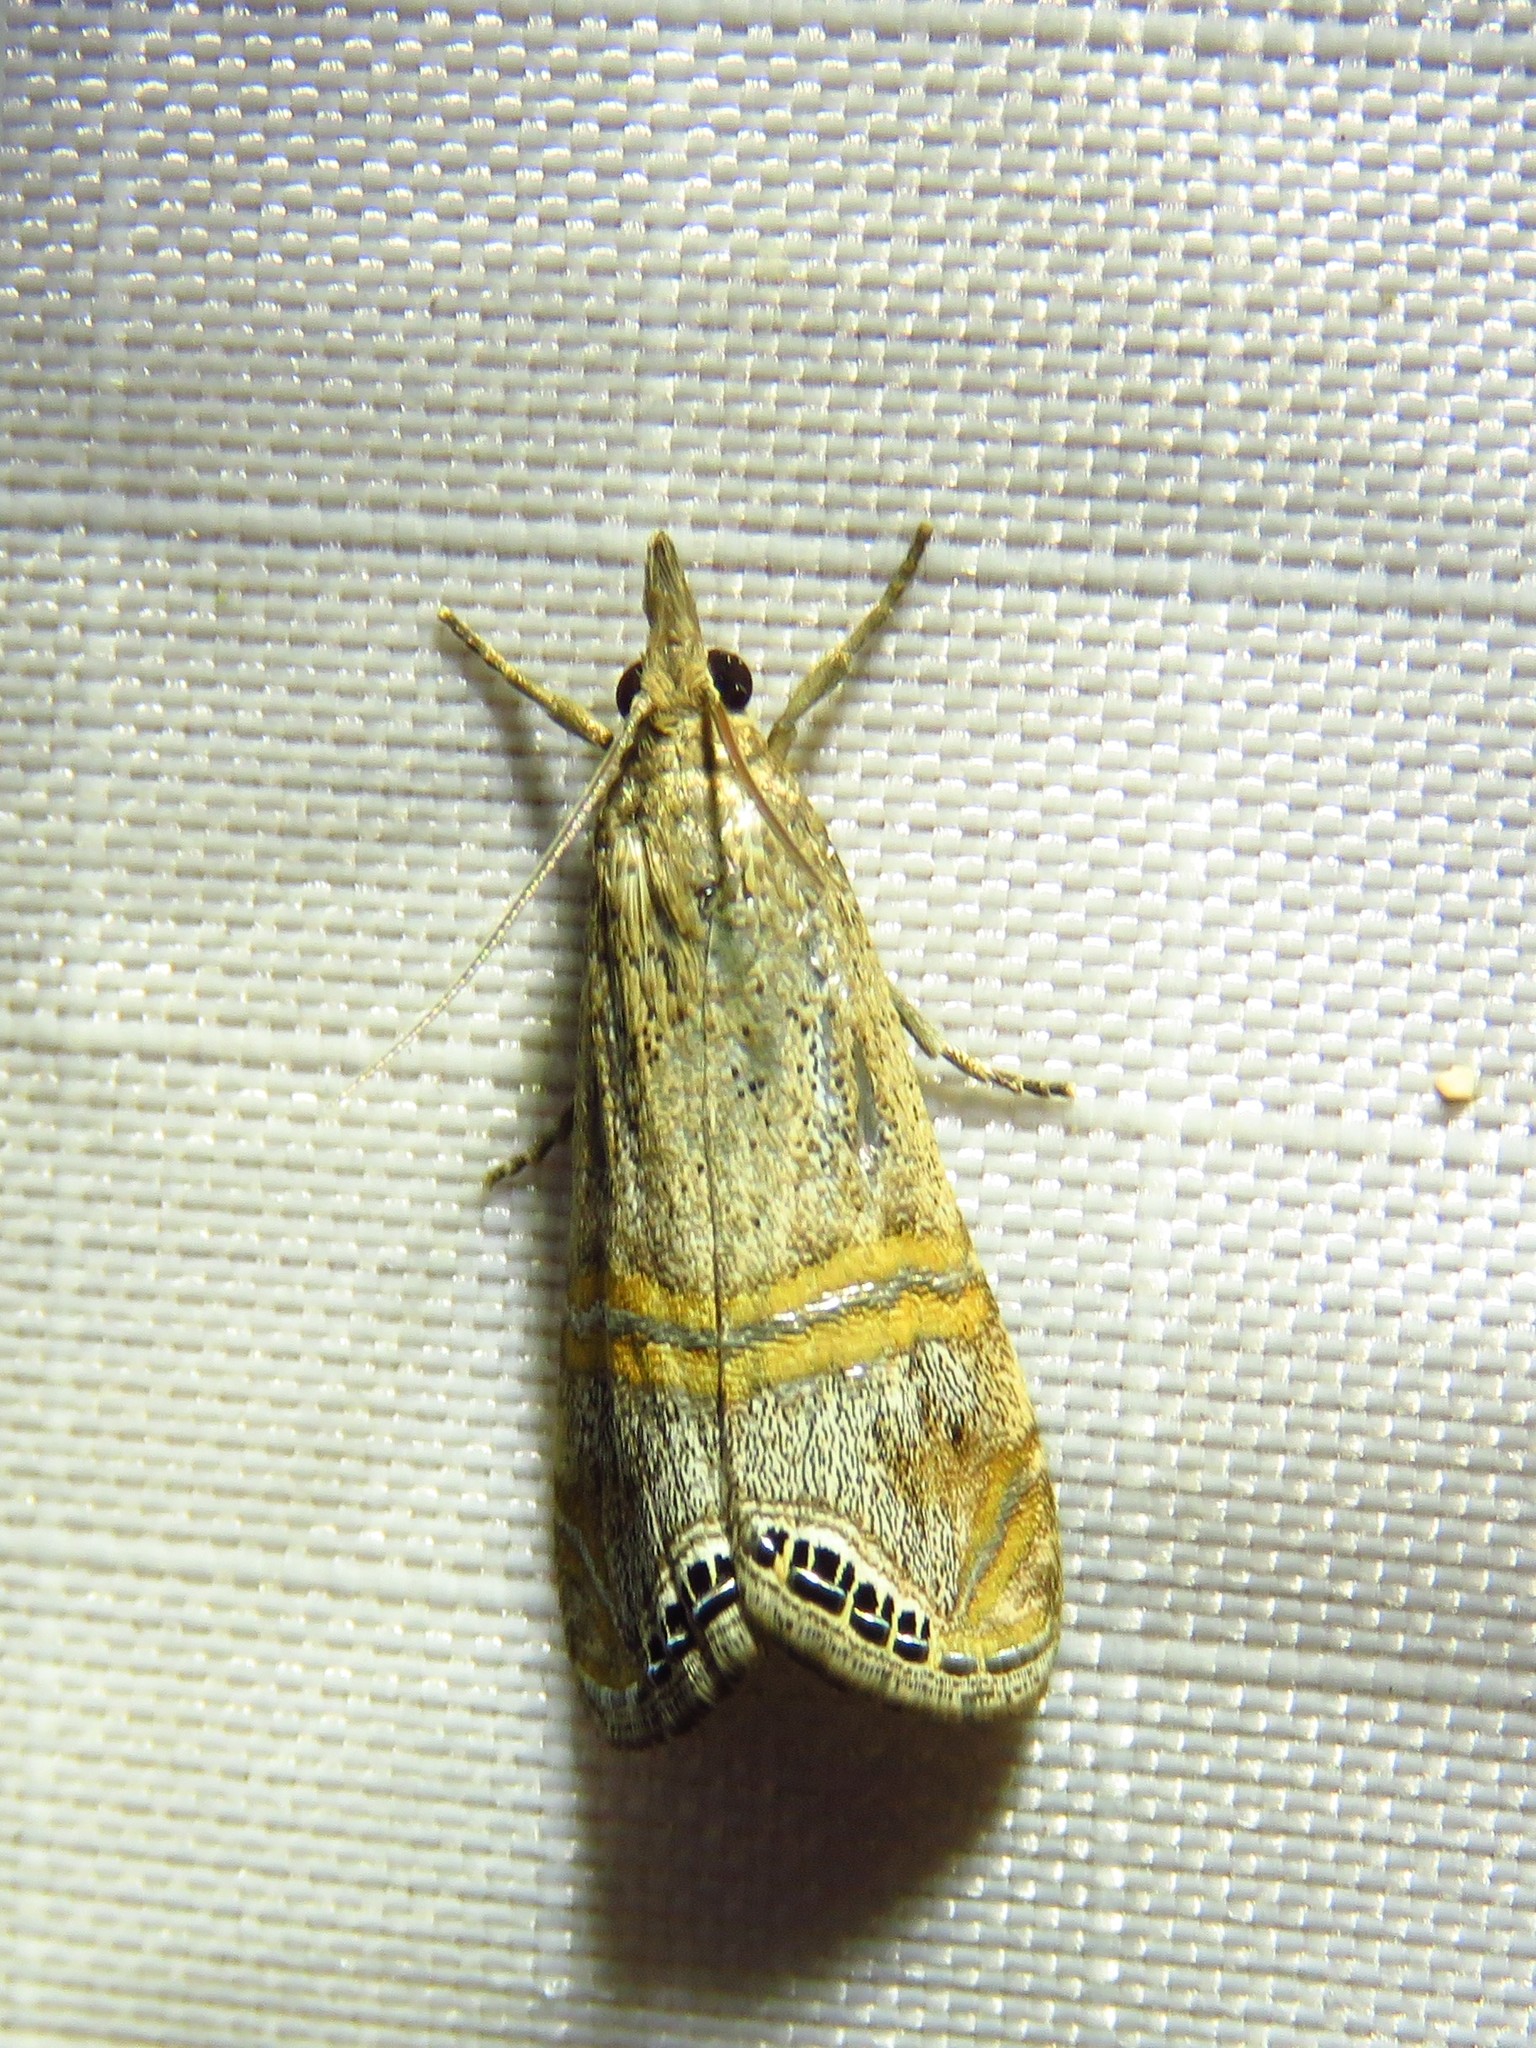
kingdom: Animalia
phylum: Arthropoda
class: Insecta
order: Lepidoptera
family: Crambidae
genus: Euchromius
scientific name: Euchromius ocellea
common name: Necklace veneer moth
